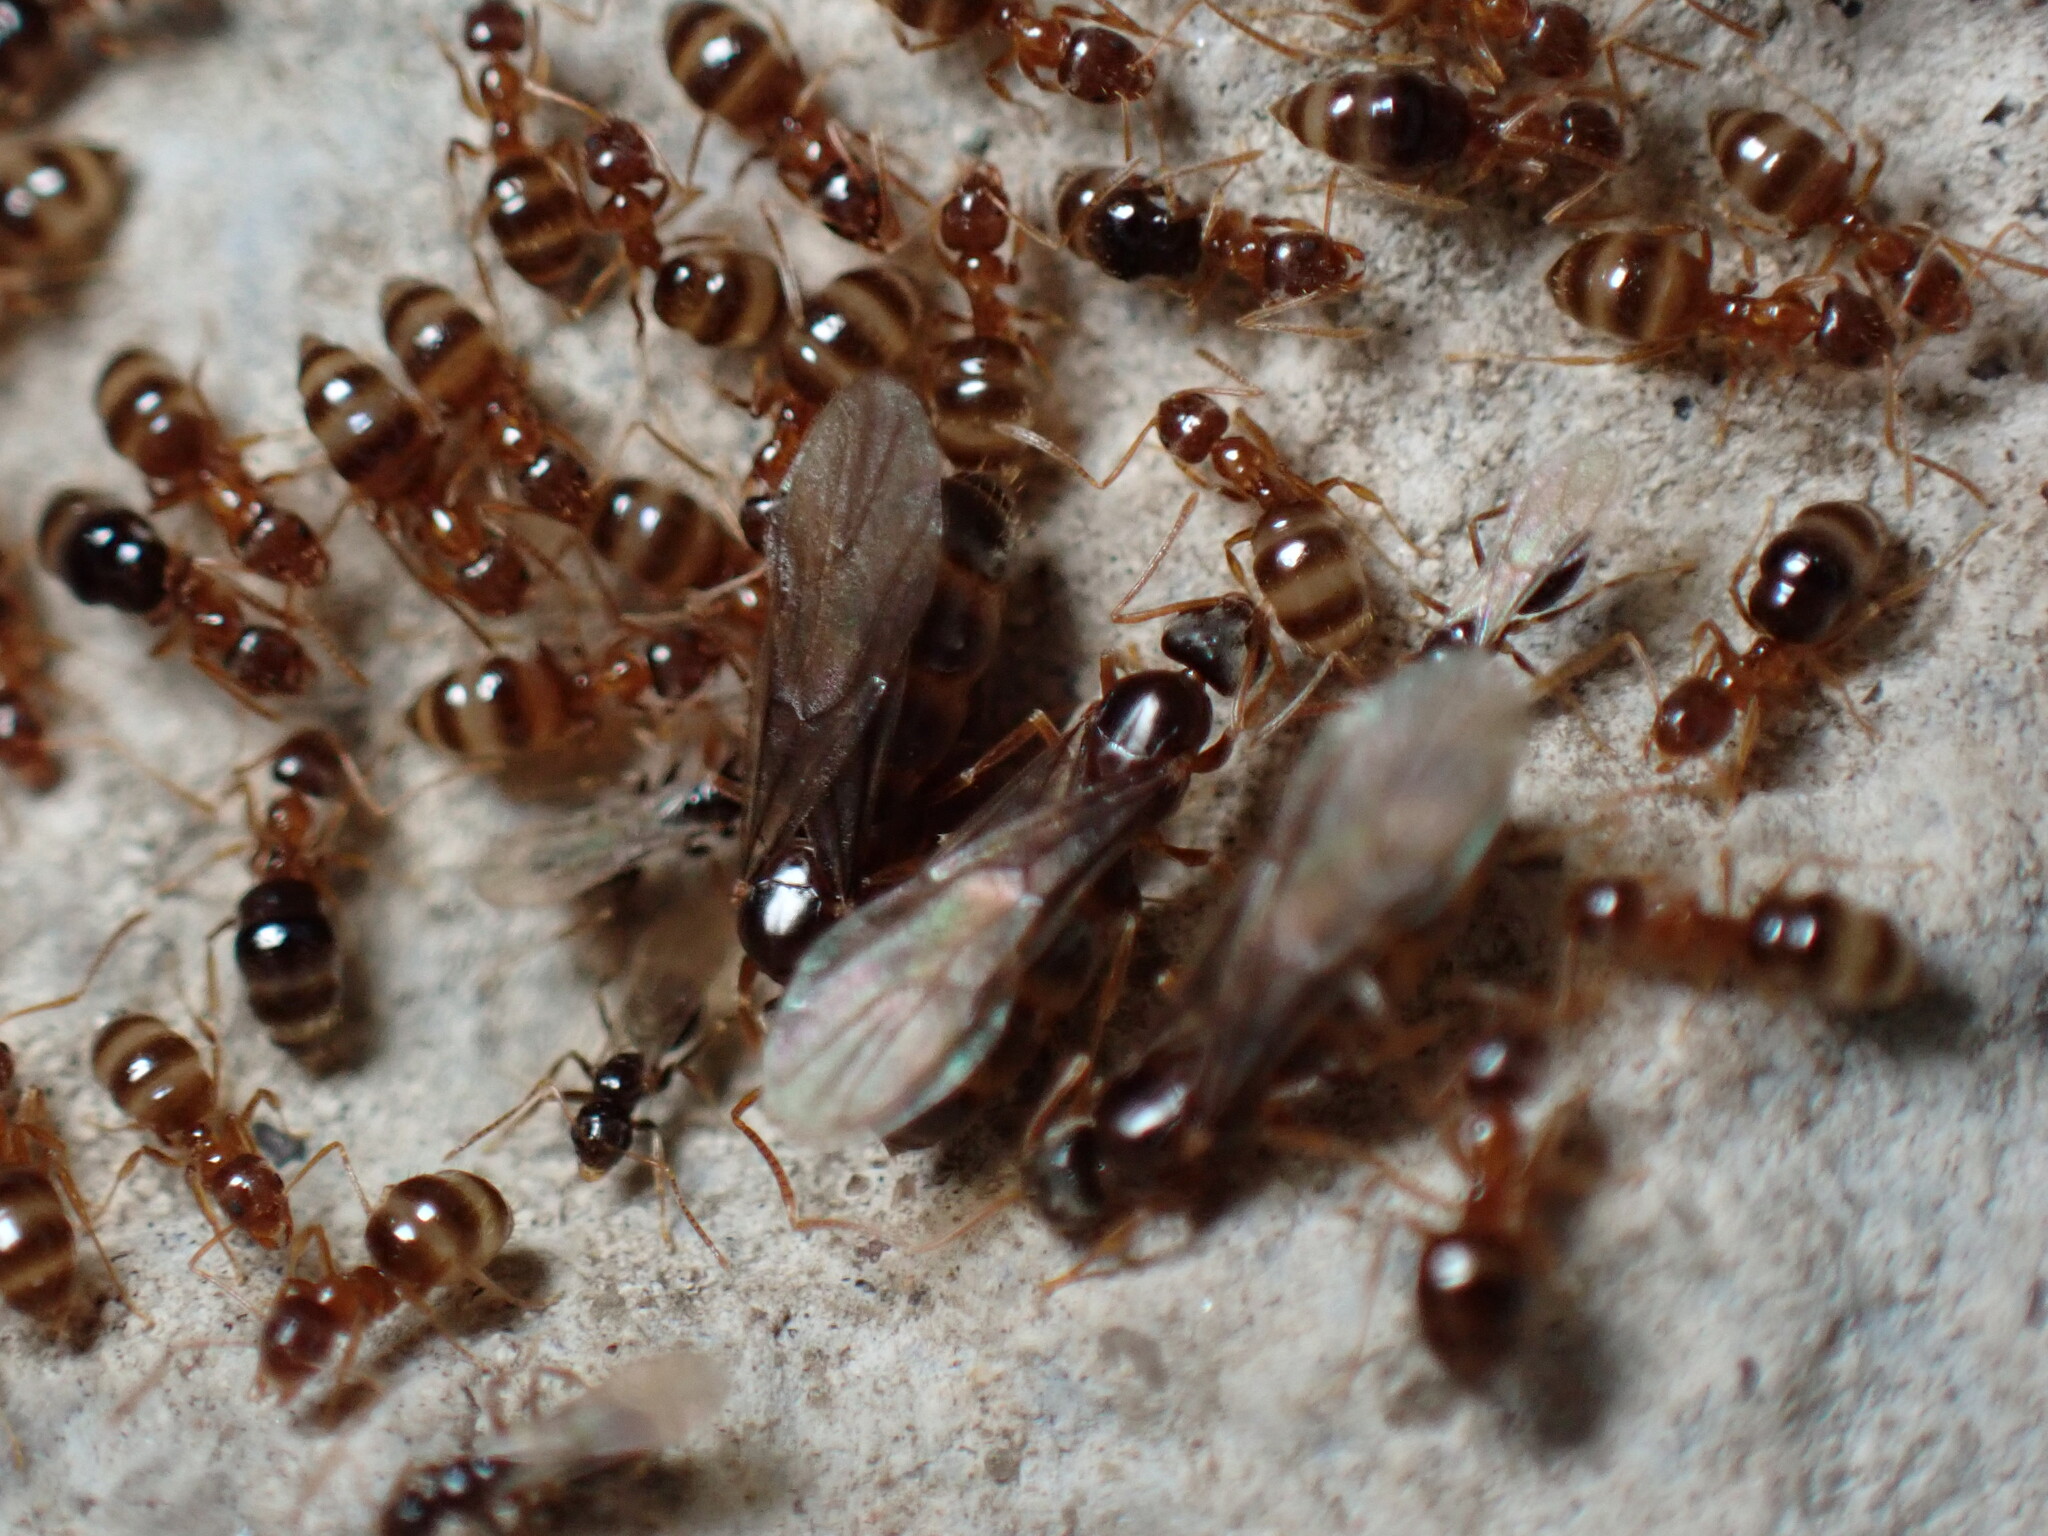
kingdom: Animalia
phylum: Arthropoda
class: Insecta
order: Hymenoptera
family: Formicidae
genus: Paratrechina
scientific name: Paratrechina flavipes
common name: Eastern asian formicine ant
